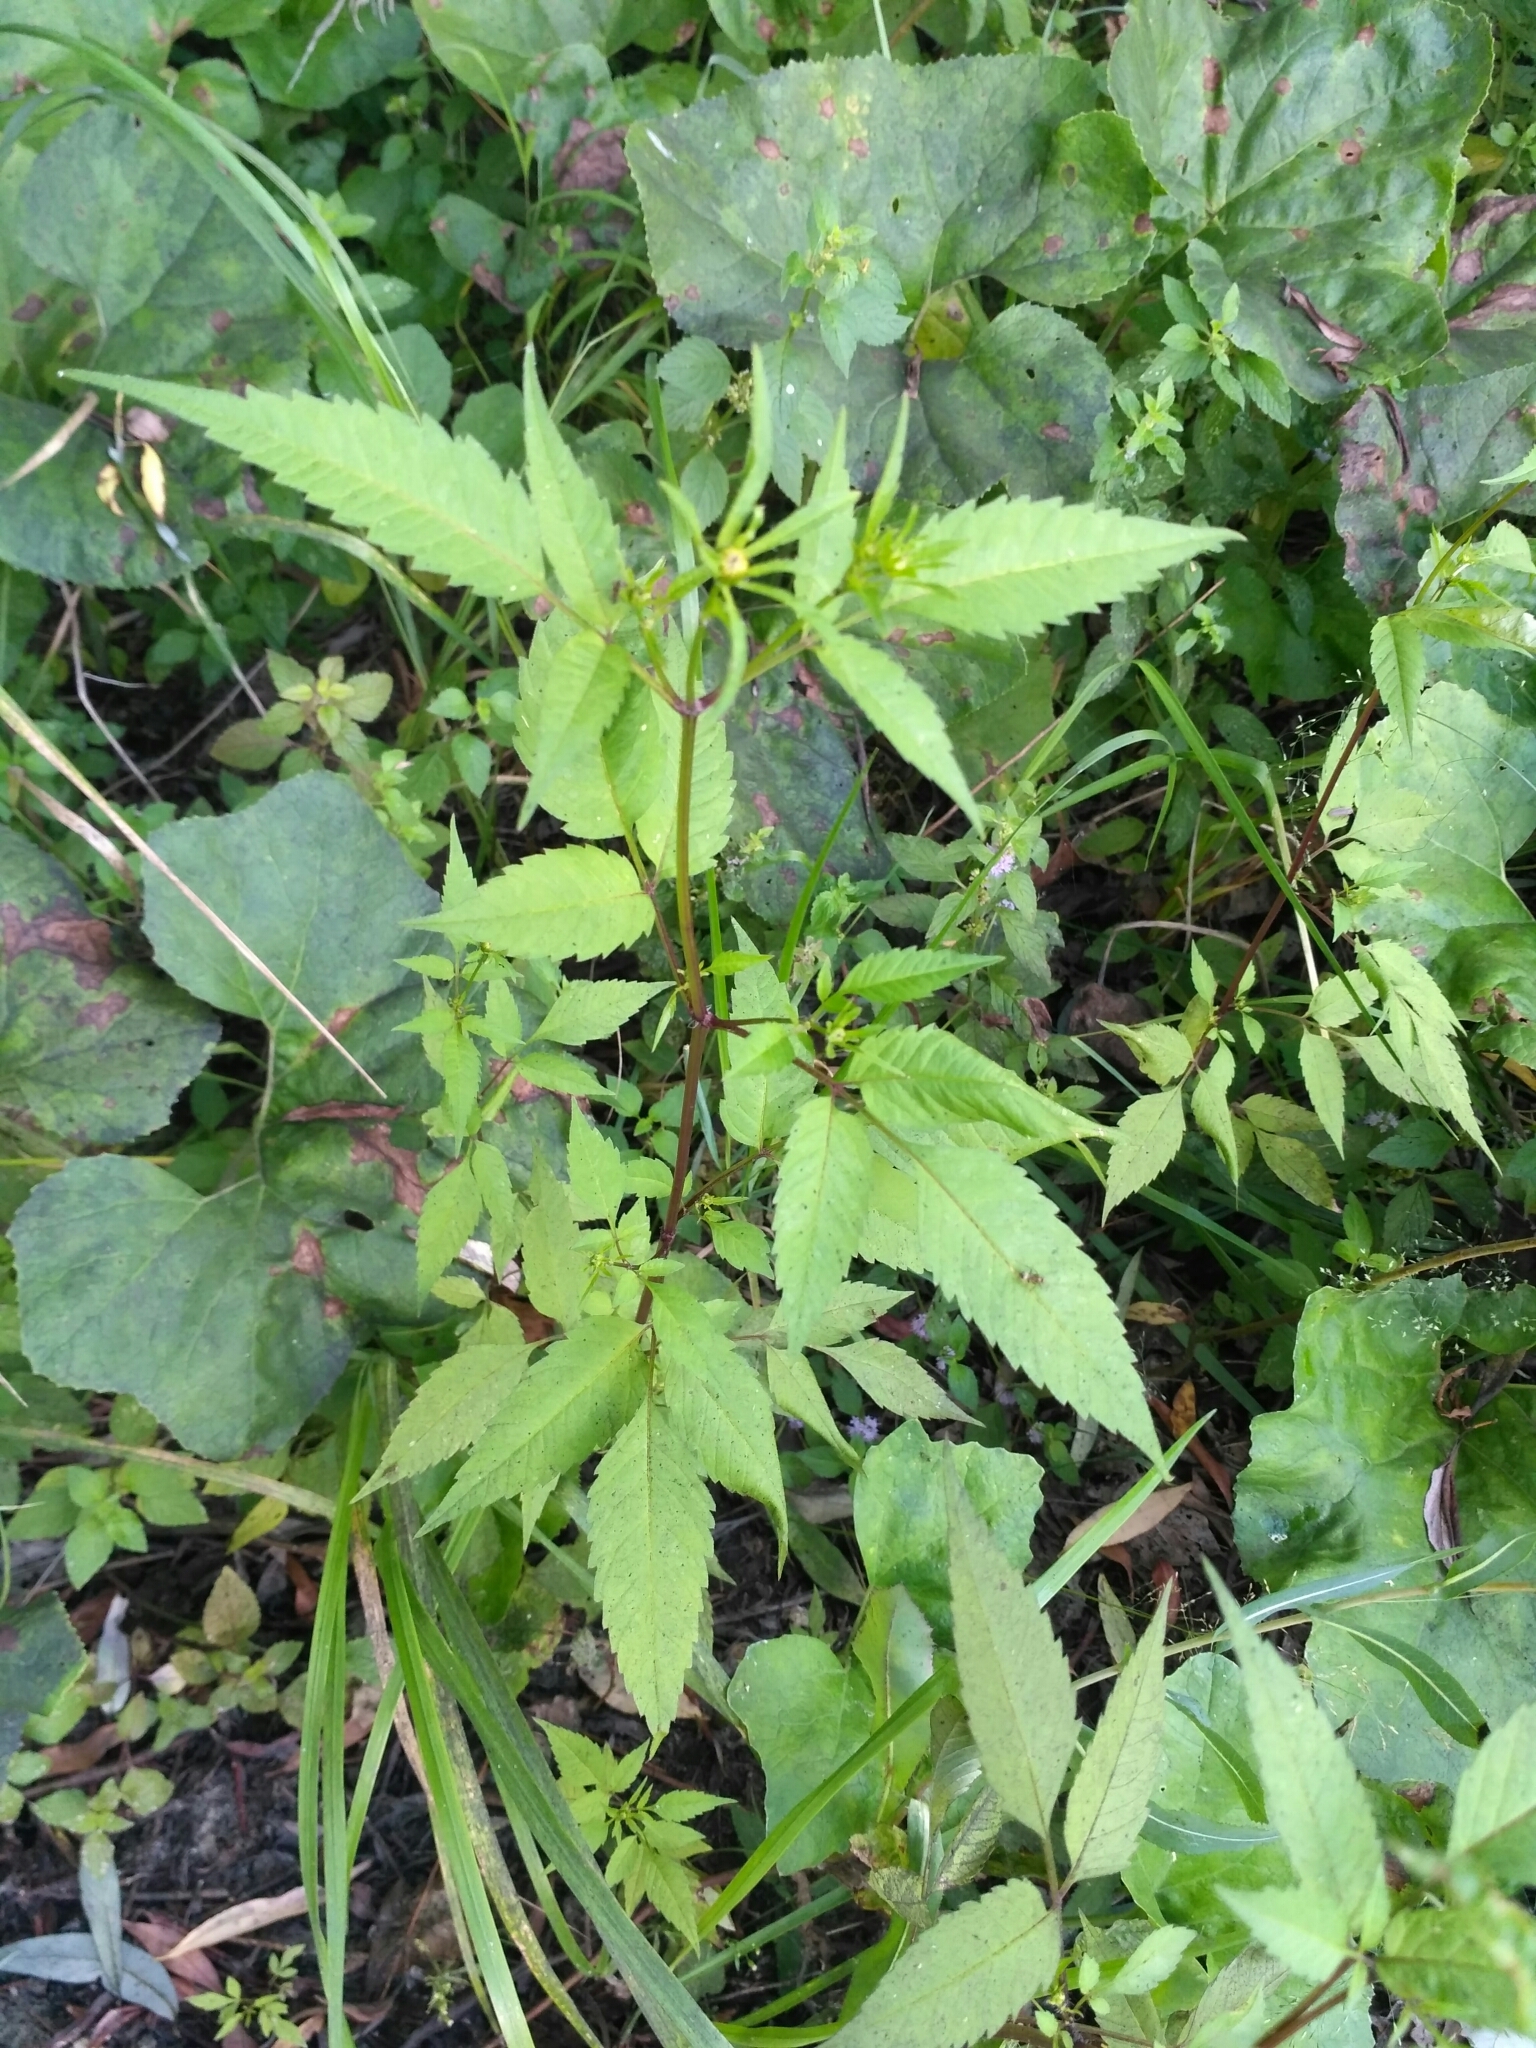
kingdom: Plantae
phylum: Tracheophyta
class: Magnoliopsida
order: Asterales
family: Asteraceae
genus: Bidens
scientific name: Bidens frondosa
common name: Beggarticks
